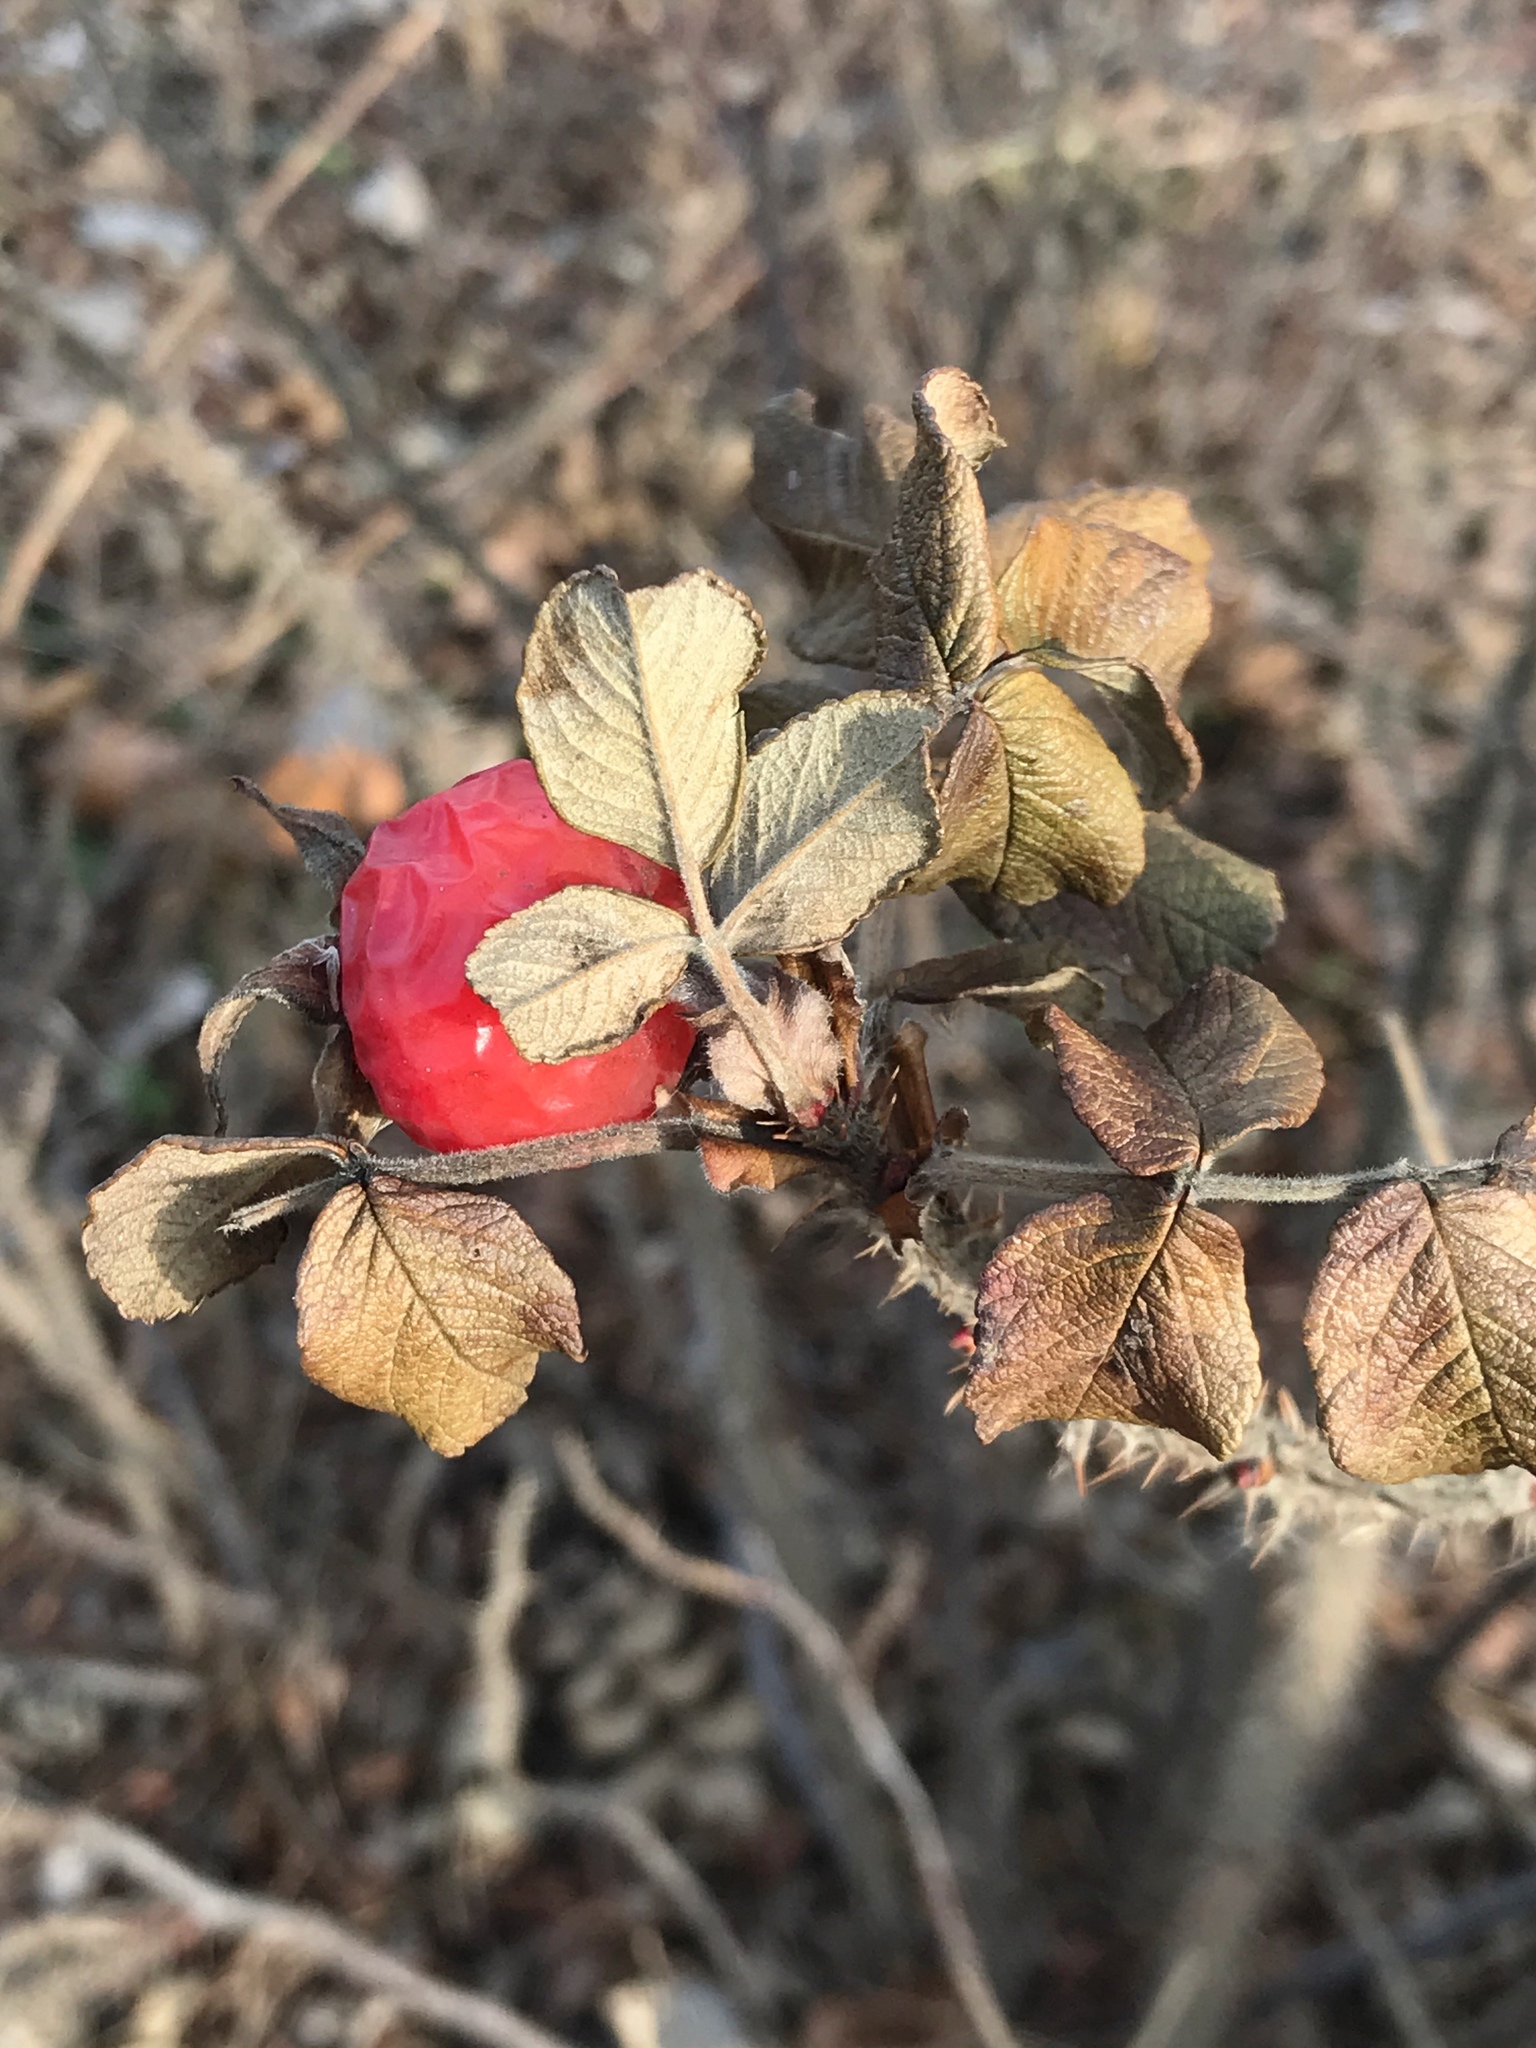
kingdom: Plantae
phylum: Tracheophyta
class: Magnoliopsida
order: Rosales
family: Rosaceae
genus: Rosa
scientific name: Rosa rugosa
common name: Japanese rose
